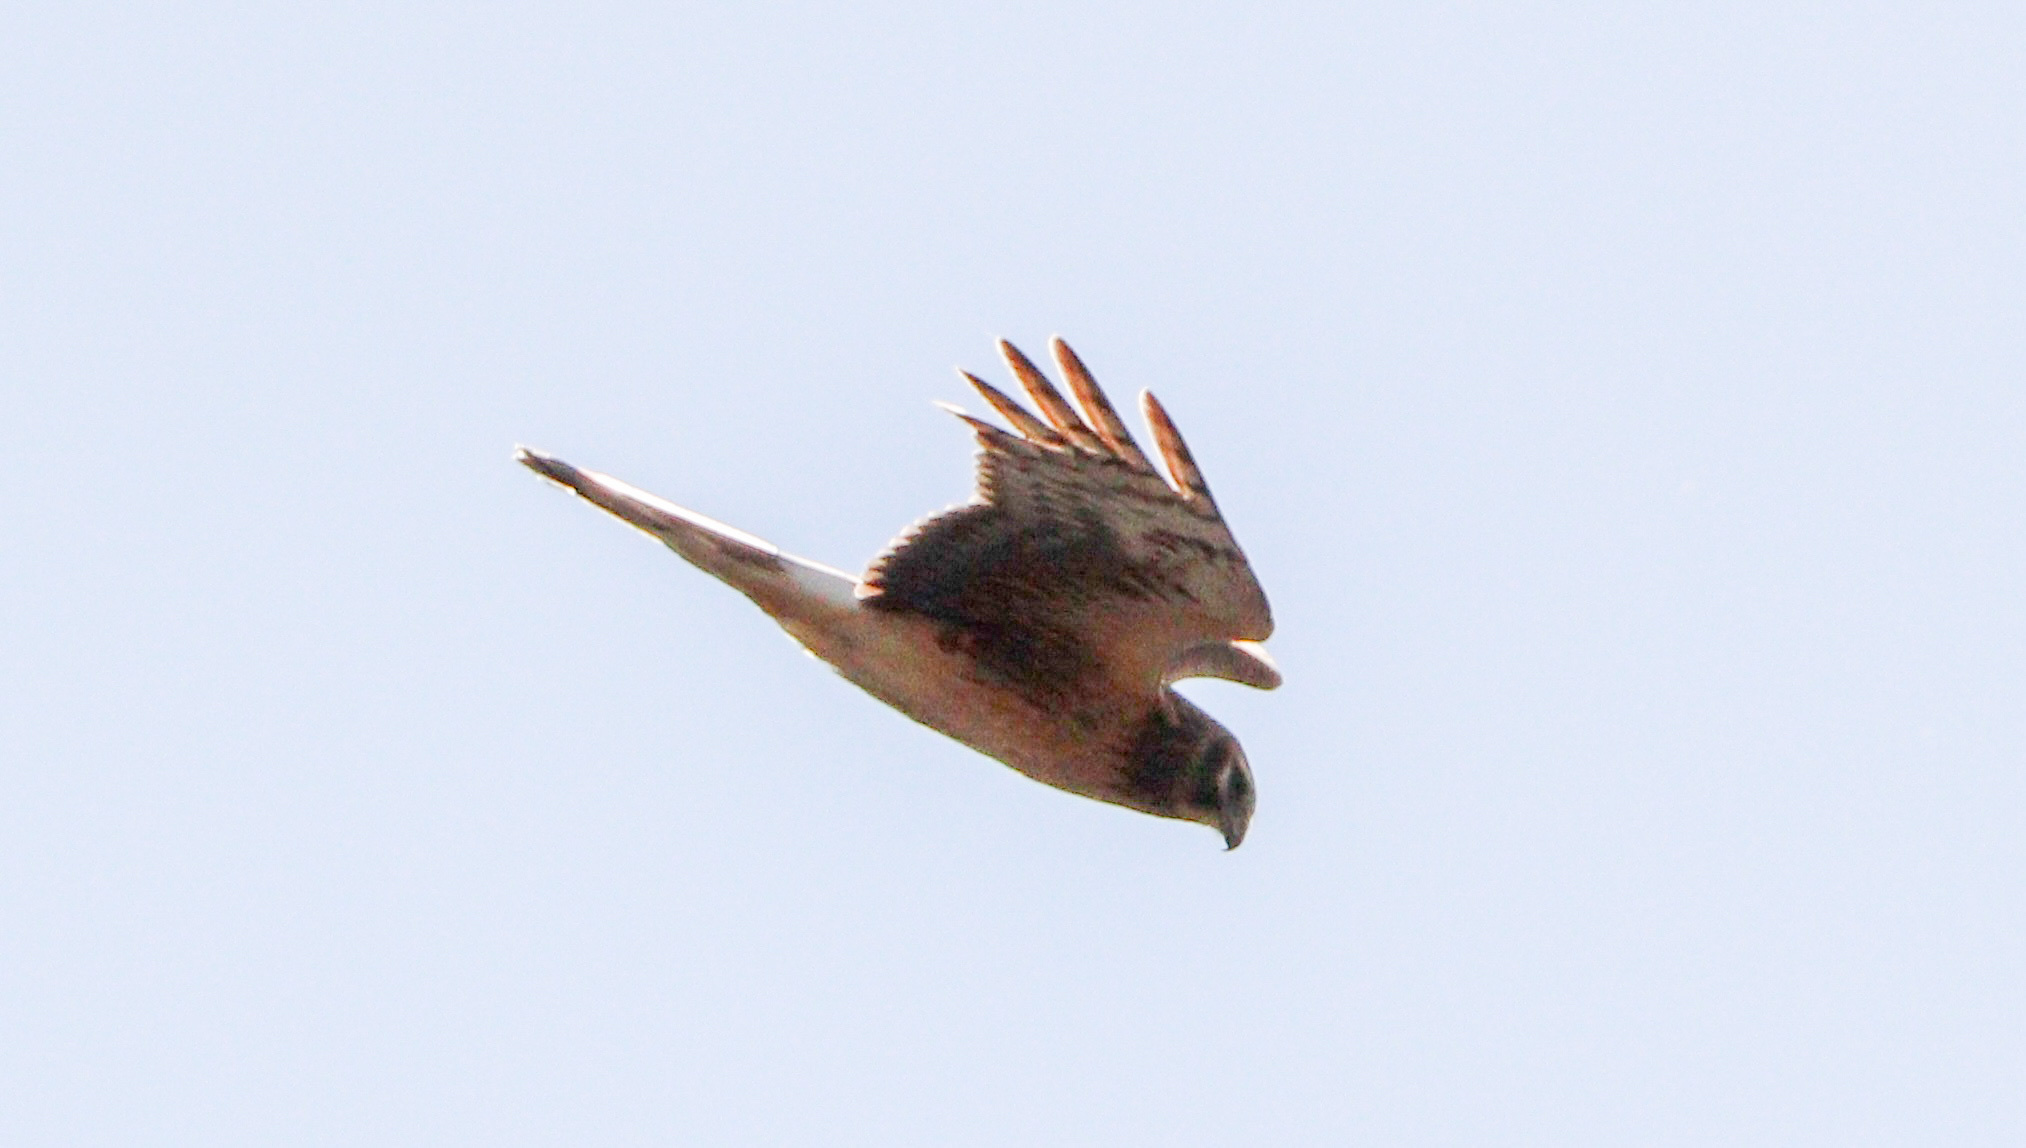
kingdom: Animalia
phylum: Chordata
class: Aves
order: Accipitriformes
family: Accipitridae
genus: Circus
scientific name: Circus cyaneus
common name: Hen harrier
